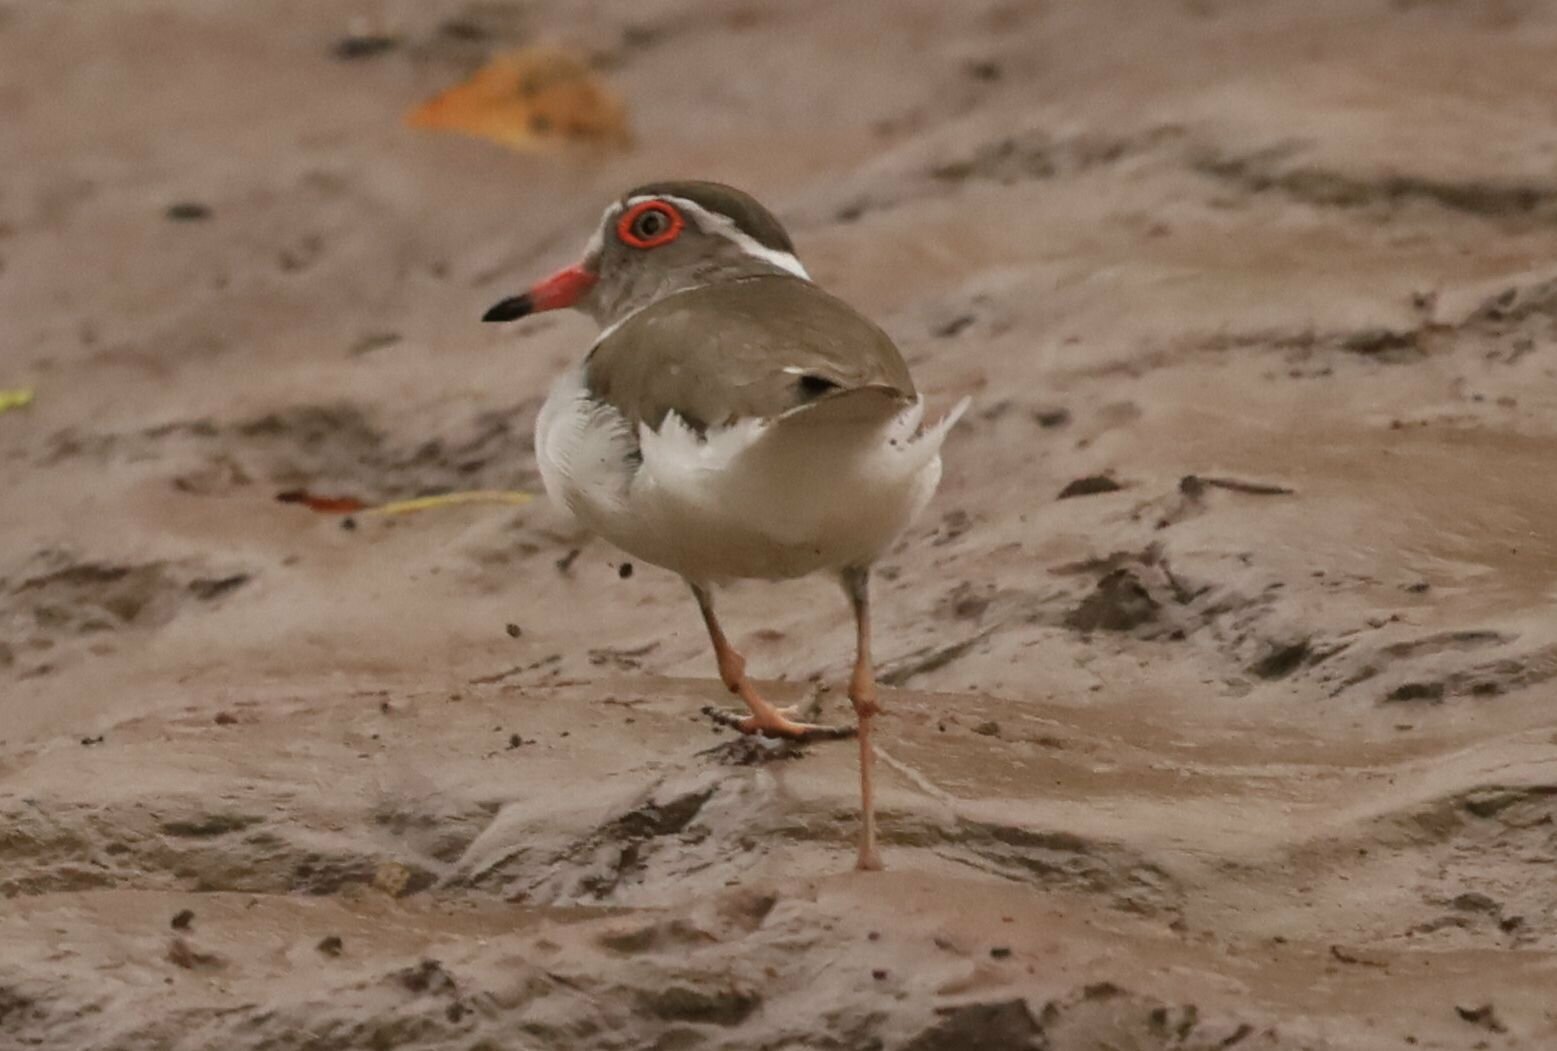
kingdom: Animalia
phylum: Chordata
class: Aves
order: Charadriiformes
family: Charadriidae
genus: Charadrius
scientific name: Charadrius tricollaris
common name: Three-banded plover
